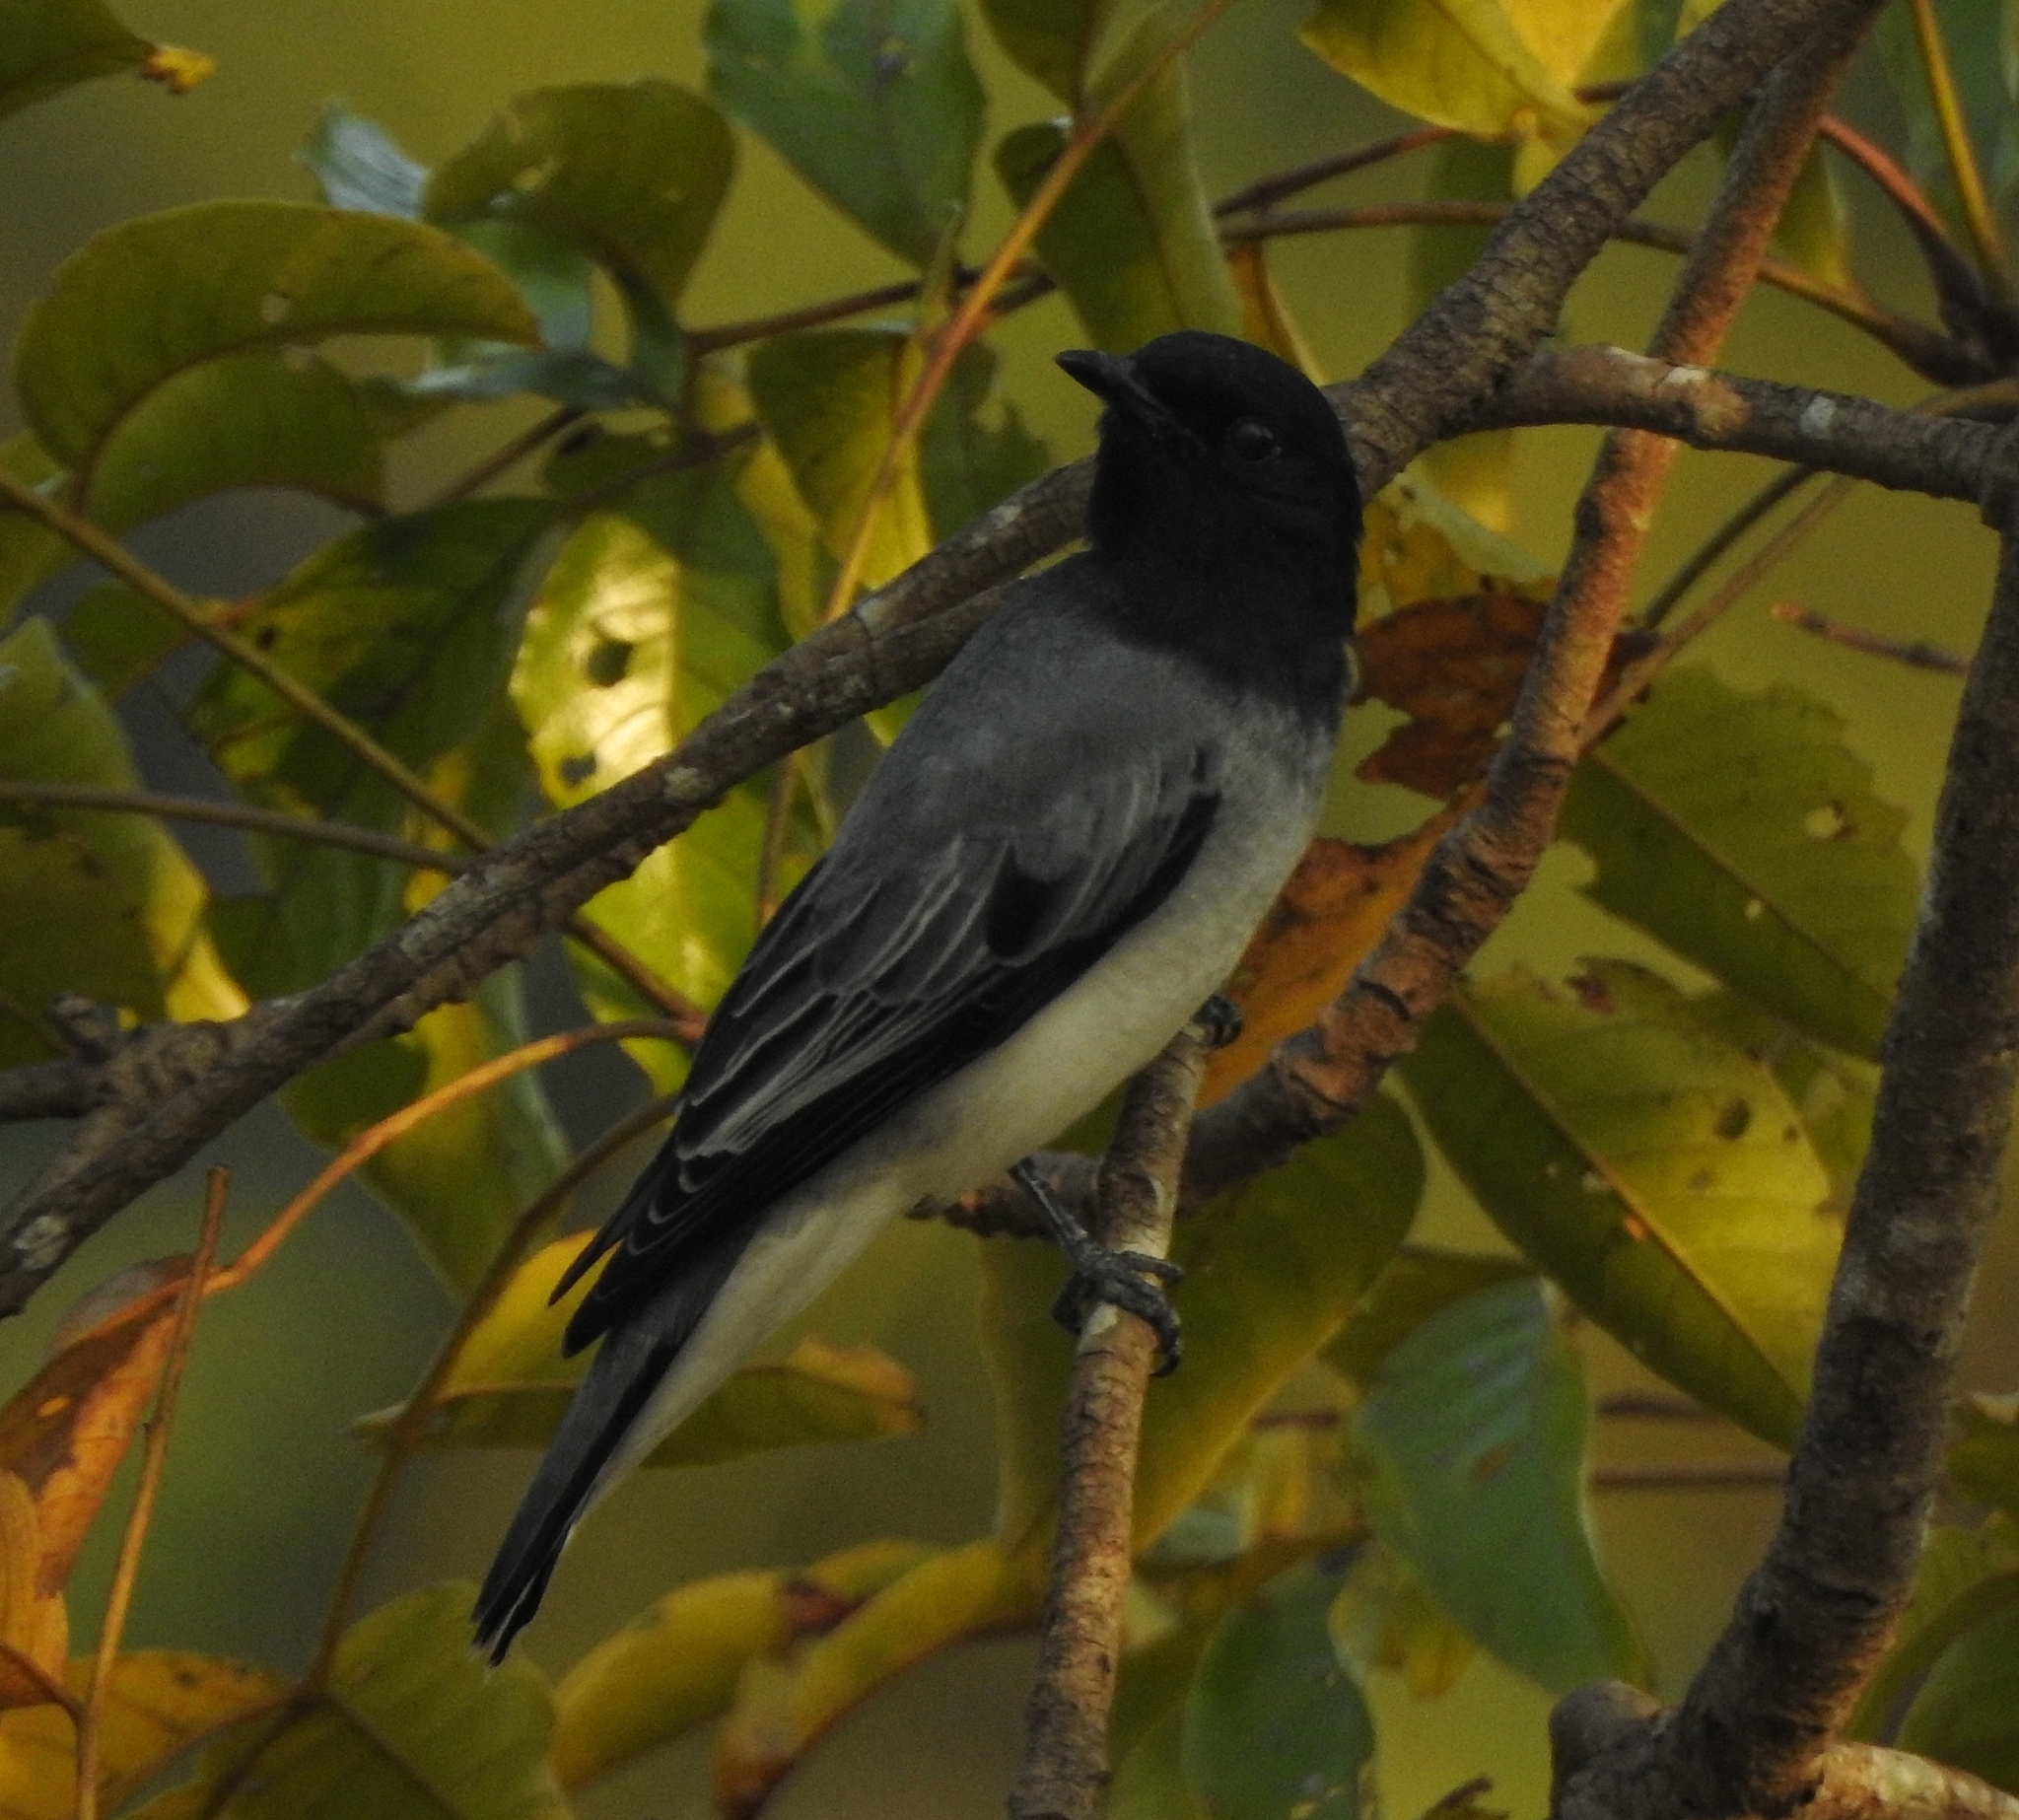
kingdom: Animalia
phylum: Chordata
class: Aves
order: Passeriformes
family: Campephagidae
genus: Coracina
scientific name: Coracina melanoptera
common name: Black-headed cuckooshrike
